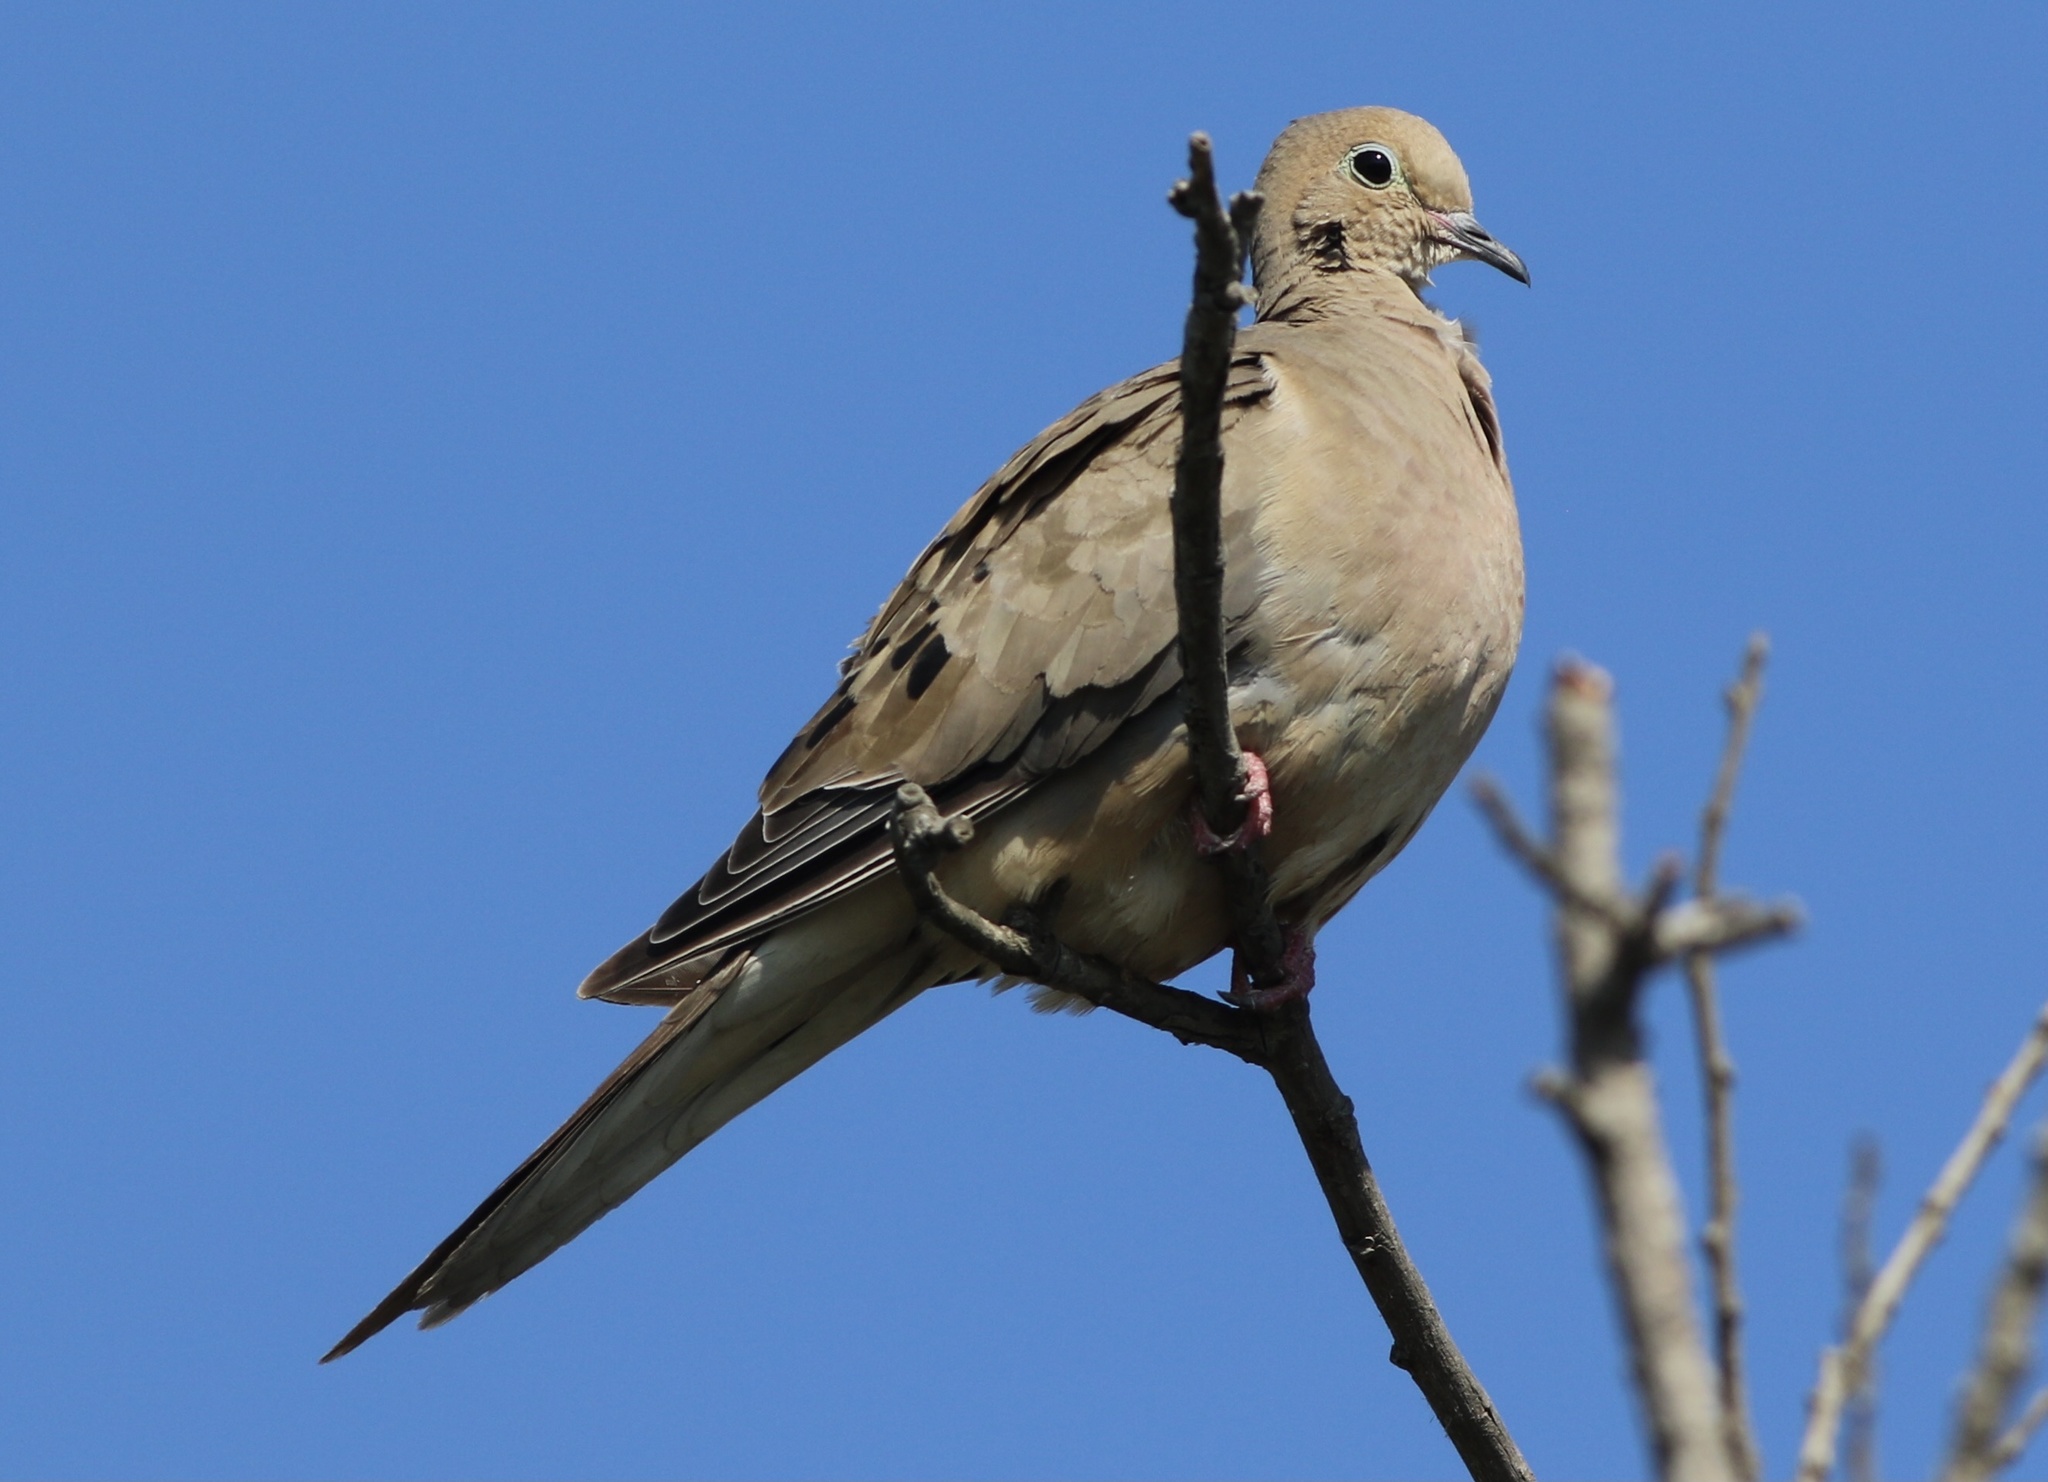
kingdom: Animalia
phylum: Chordata
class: Aves
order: Columbiformes
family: Columbidae
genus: Zenaida
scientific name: Zenaida macroura
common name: Mourning dove
